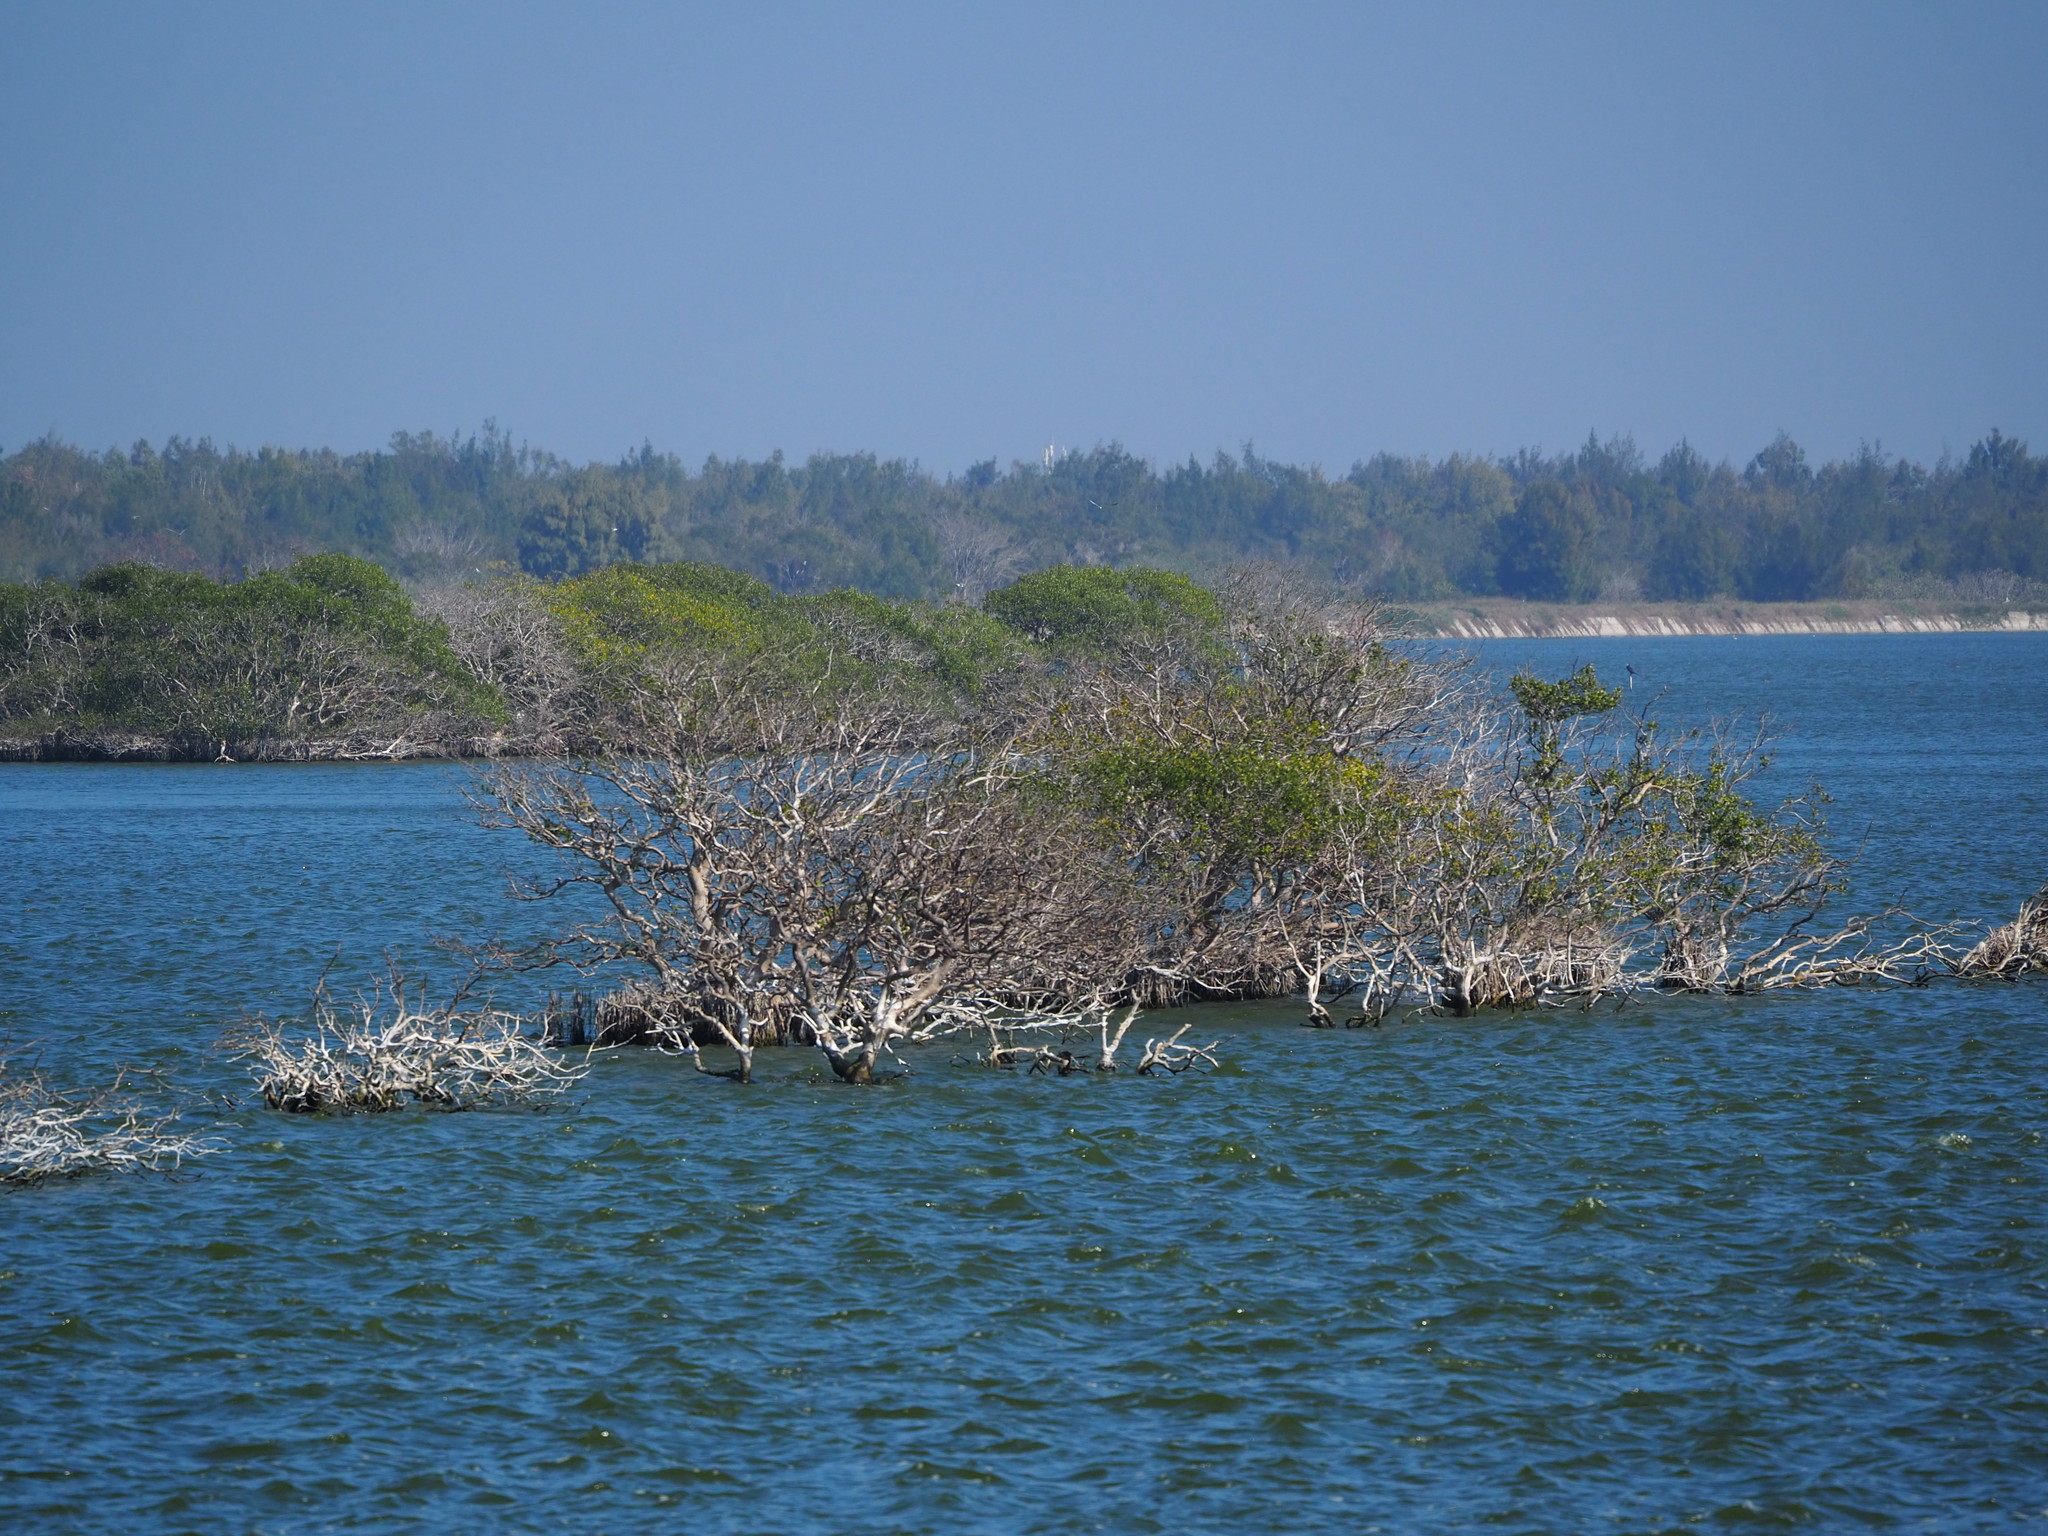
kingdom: Plantae
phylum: Tracheophyta
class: Magnoliopsida
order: Lamiales
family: Acanthaceae
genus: Avicennia
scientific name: Avicennia marina
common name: Gray mangrove
